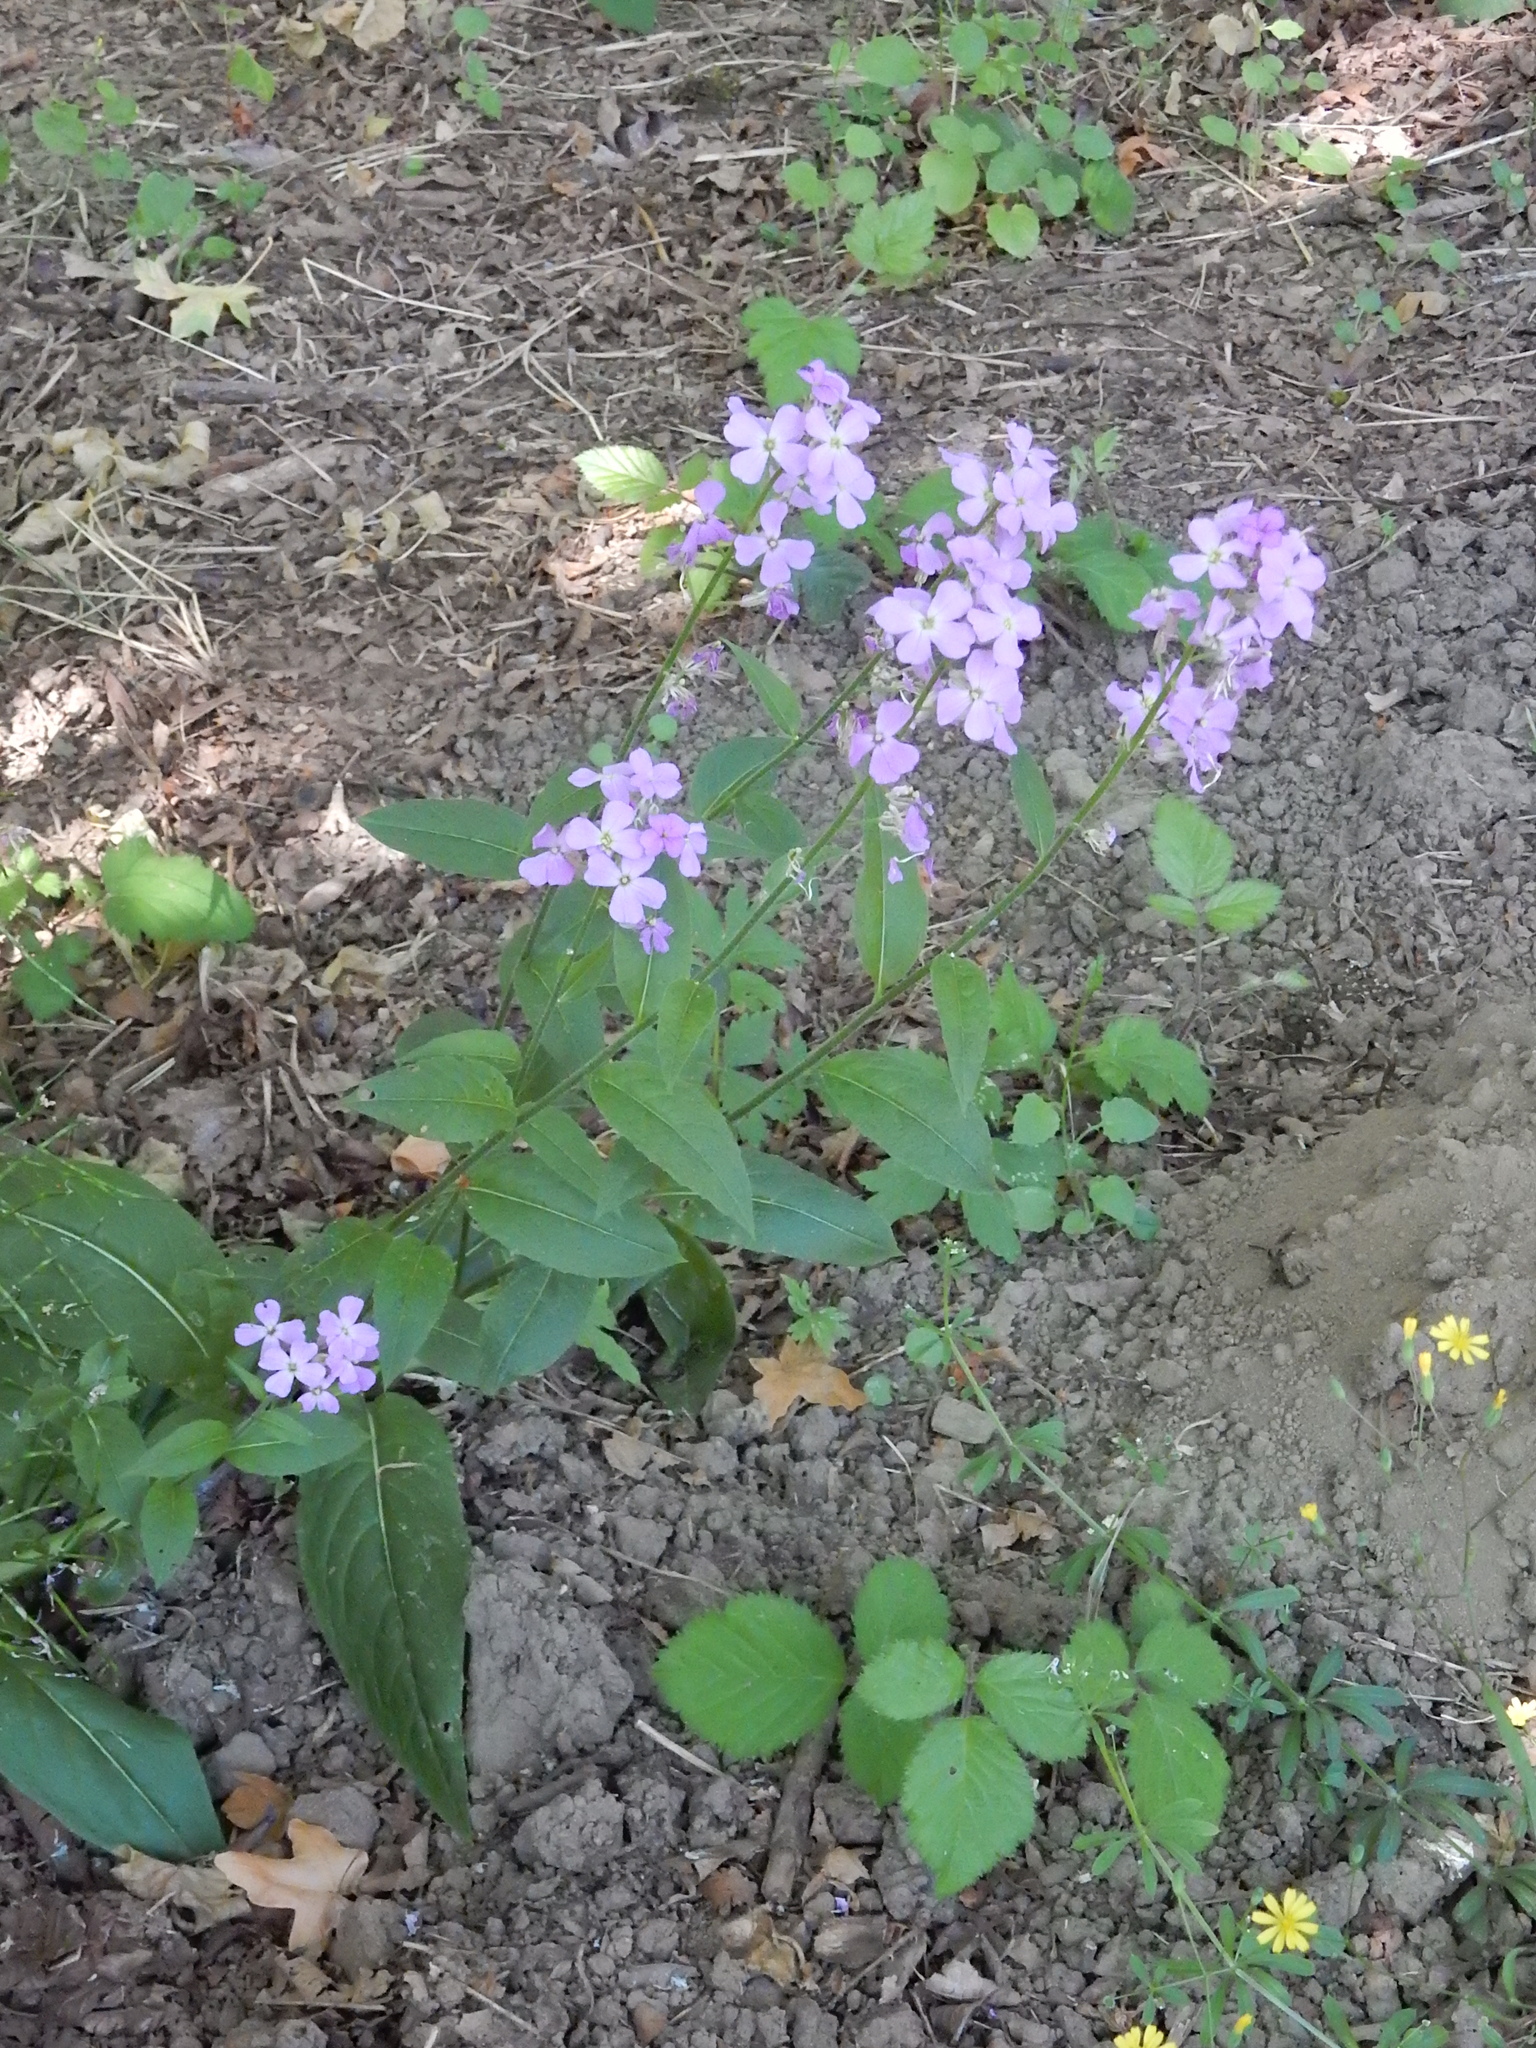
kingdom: Plantae
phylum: Tracheophyta
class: Magnoliopsida
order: Brassicales
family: Brassicaceae
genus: Hesperis
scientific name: Hesperis matronalis
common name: Dame's-violet
